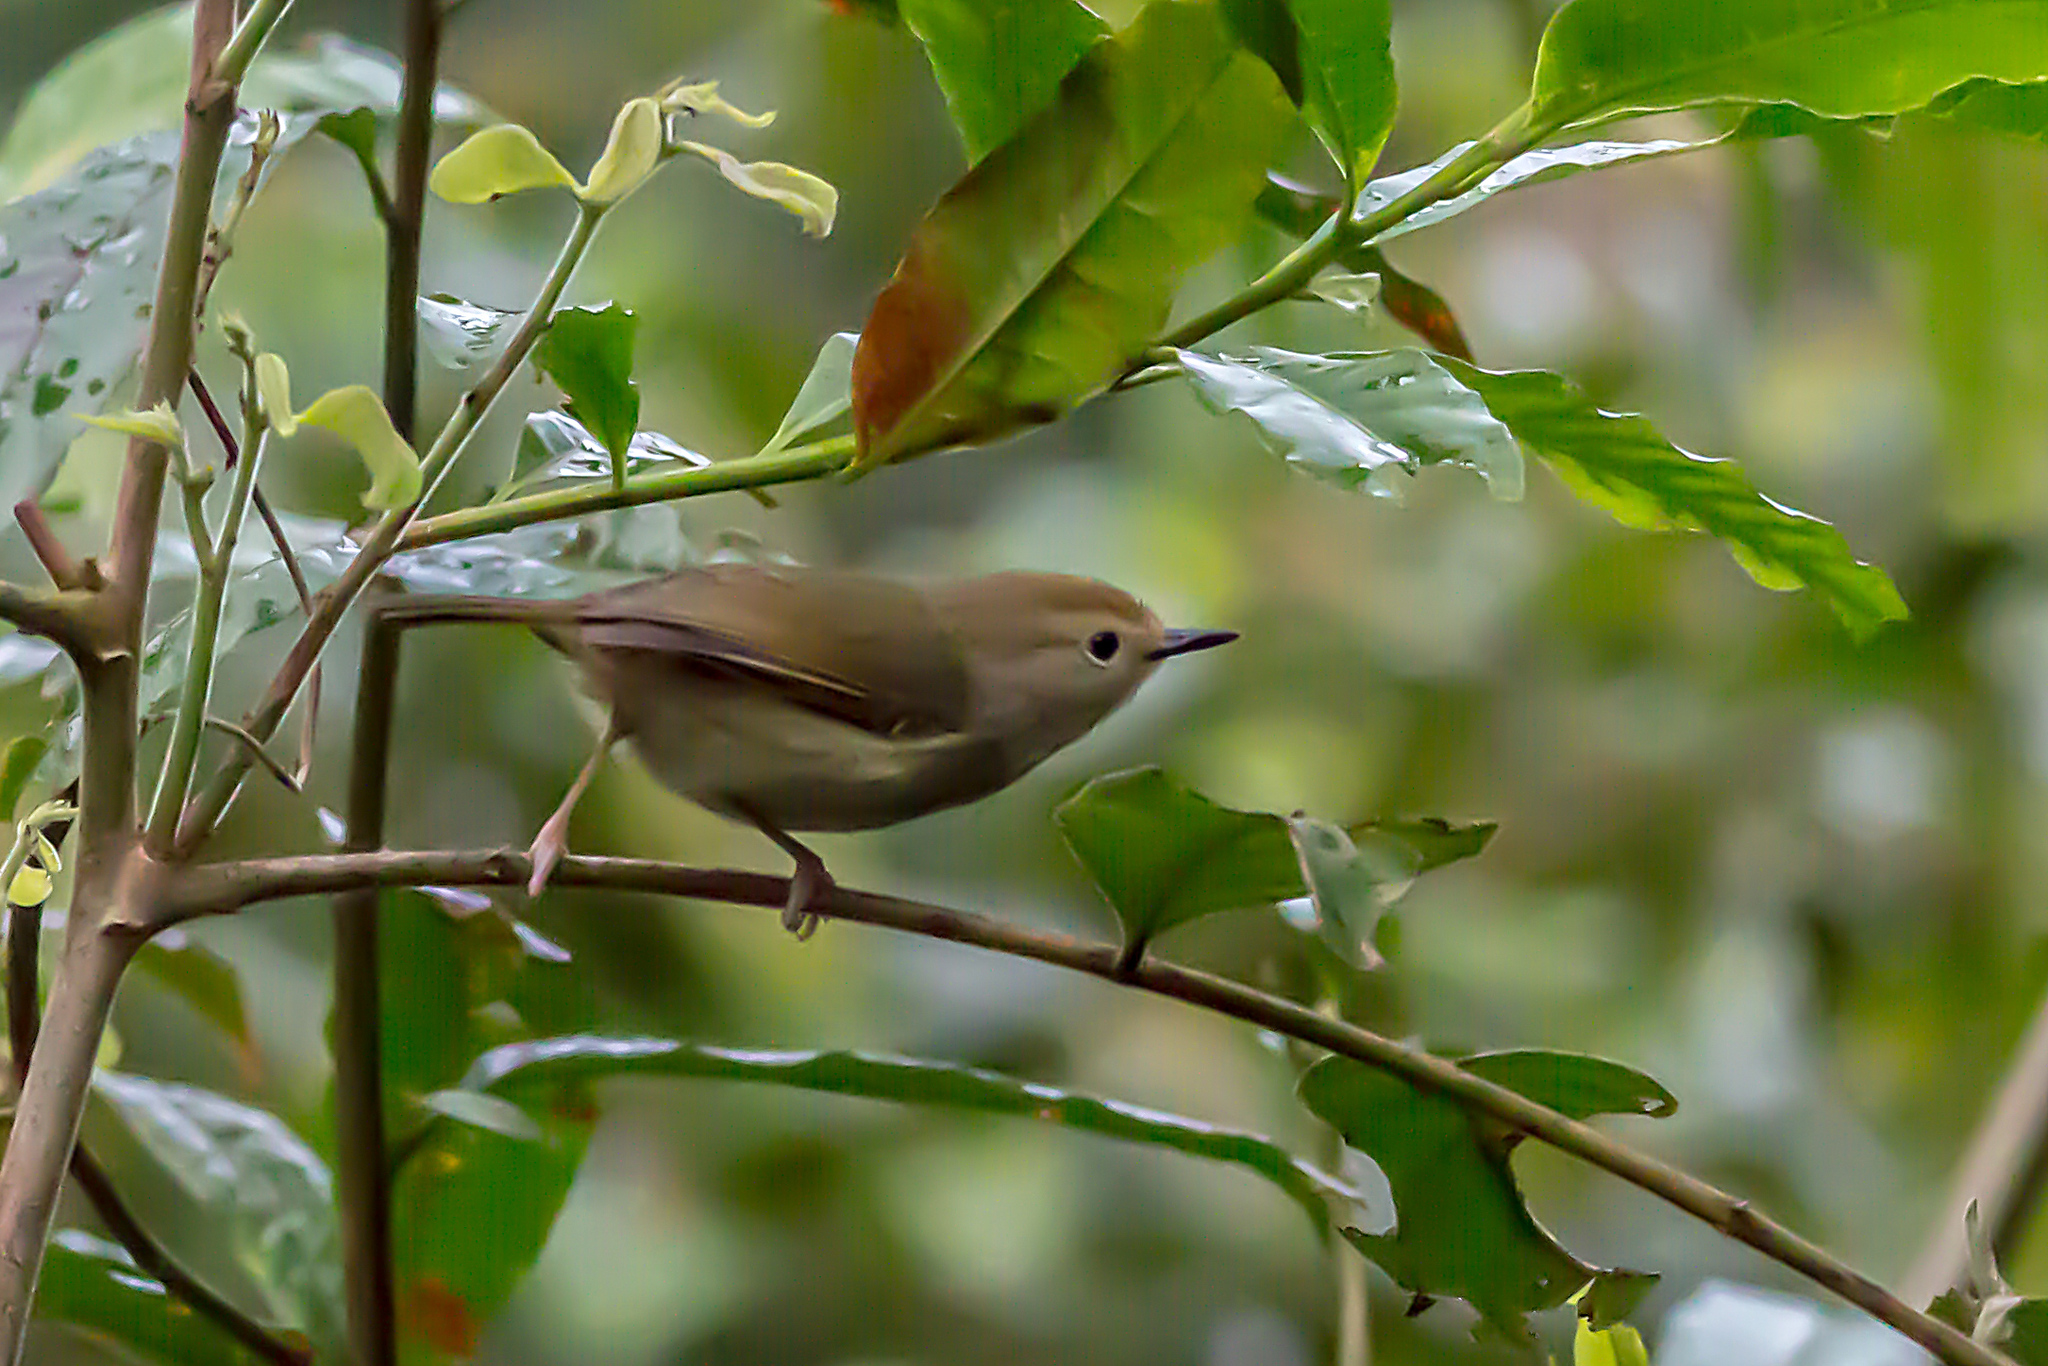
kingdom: Animalia
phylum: Chordata
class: Aves
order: Passeriformes
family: Acanthizidae
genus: Sericornis
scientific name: Sericornis magnirostra
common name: Large-billed scrubwren
